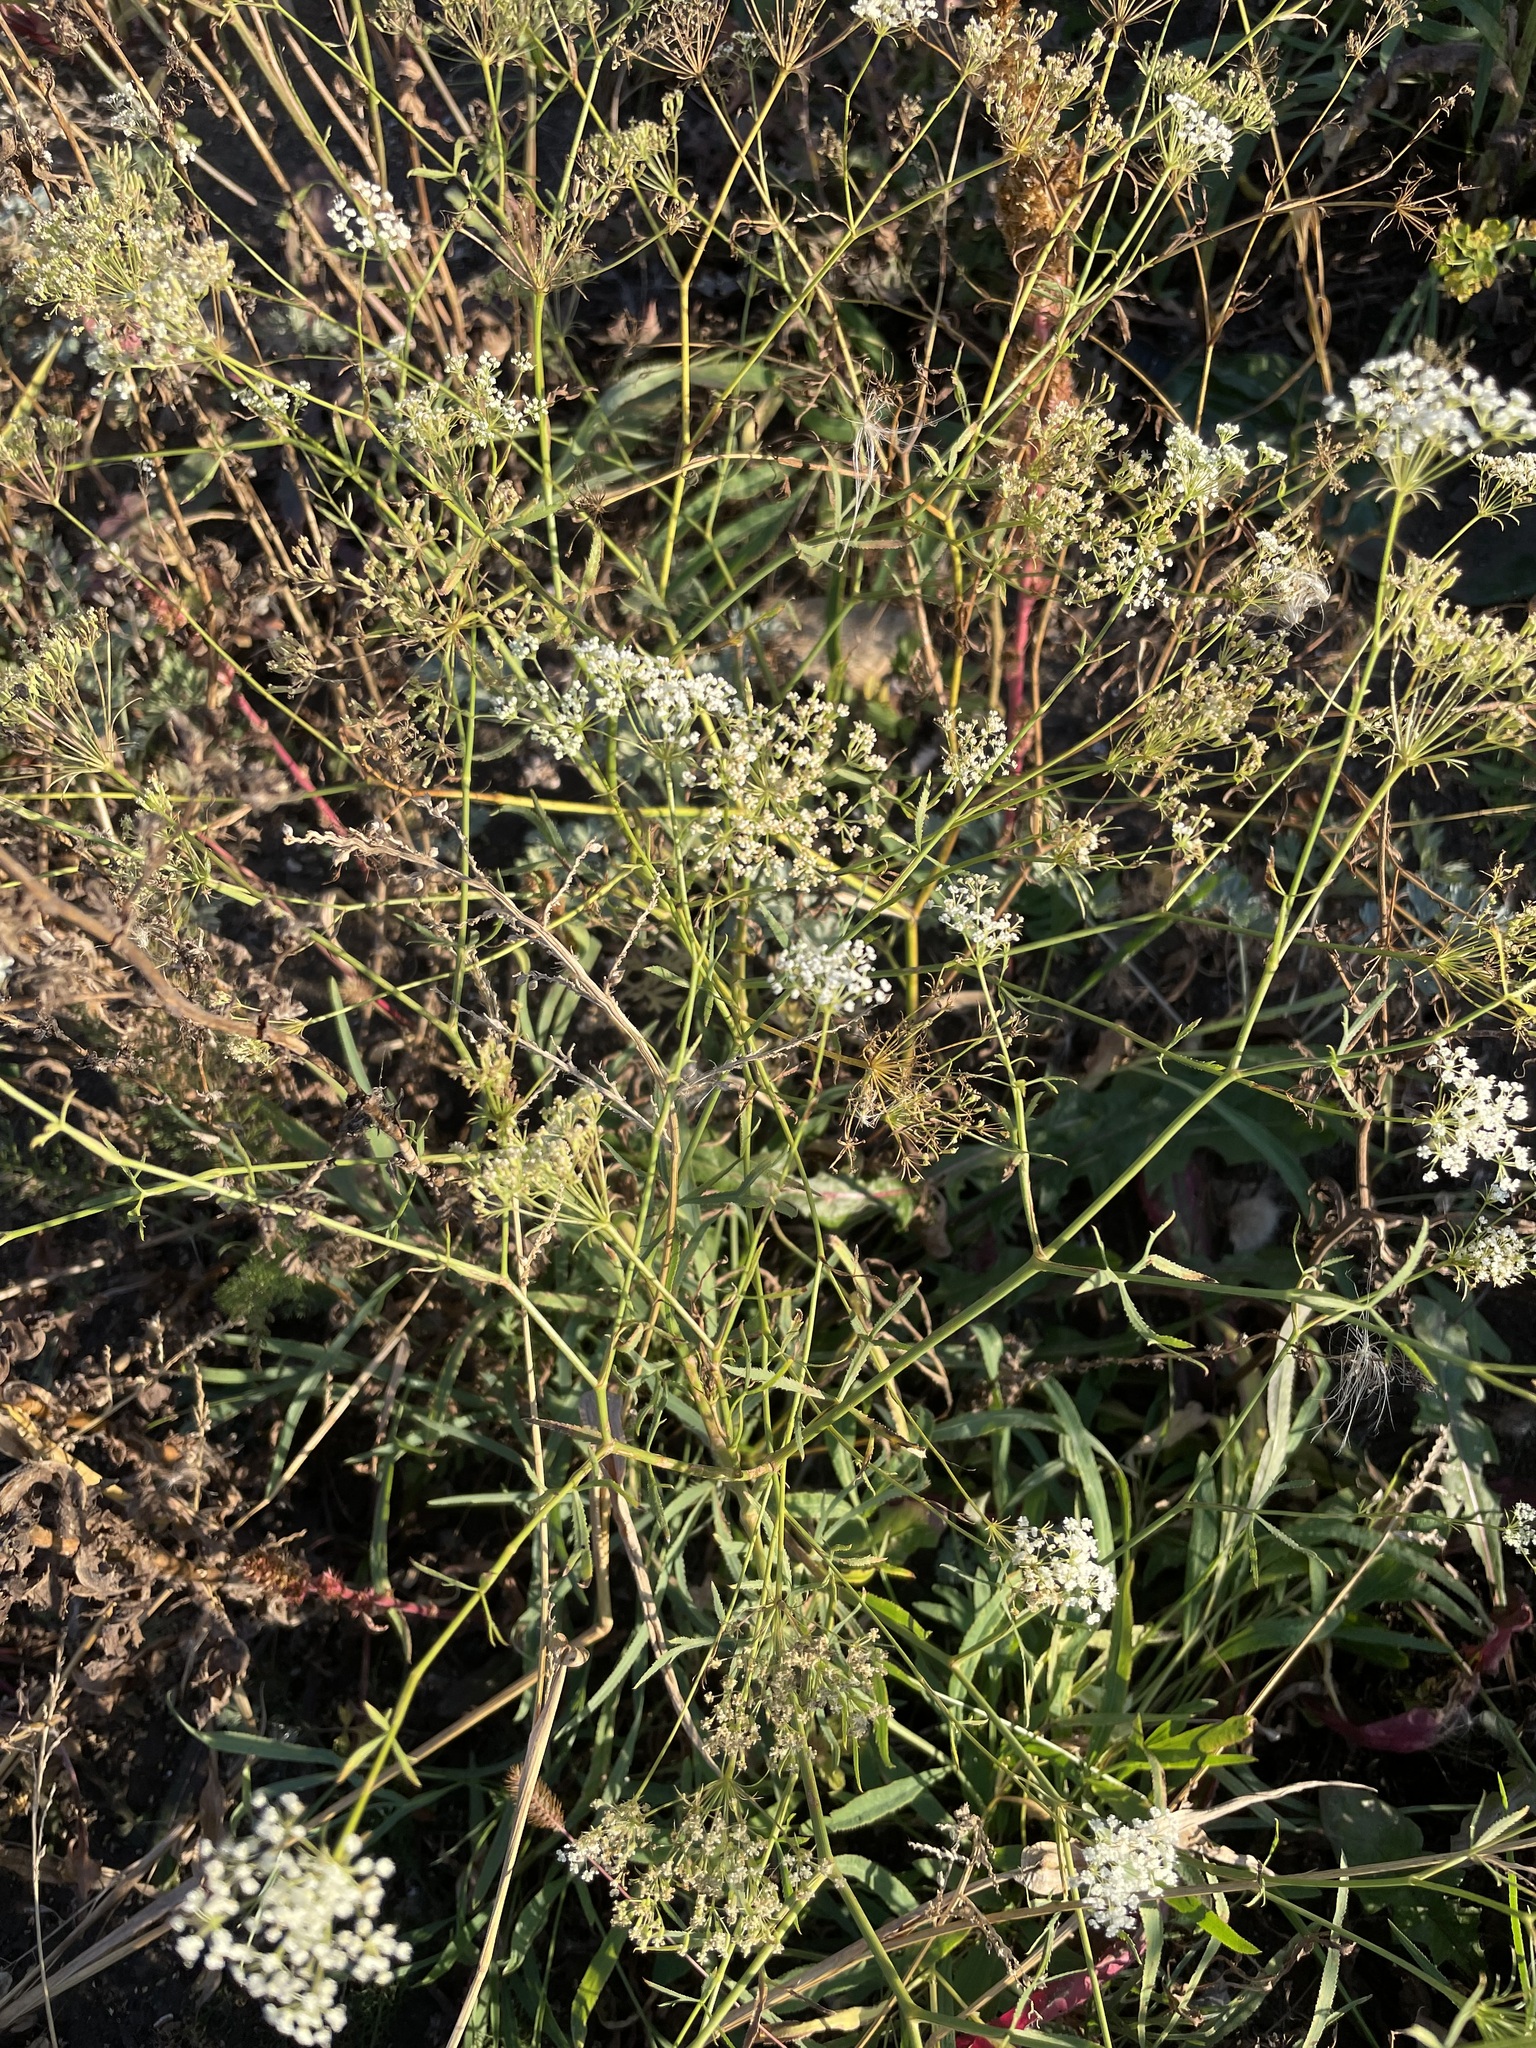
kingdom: Plantae
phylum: Tracheophyta
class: Magnoliopsida
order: Apiales
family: Apiaceae
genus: Falcaria
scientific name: Falcaria vulgaris
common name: Longleaf
